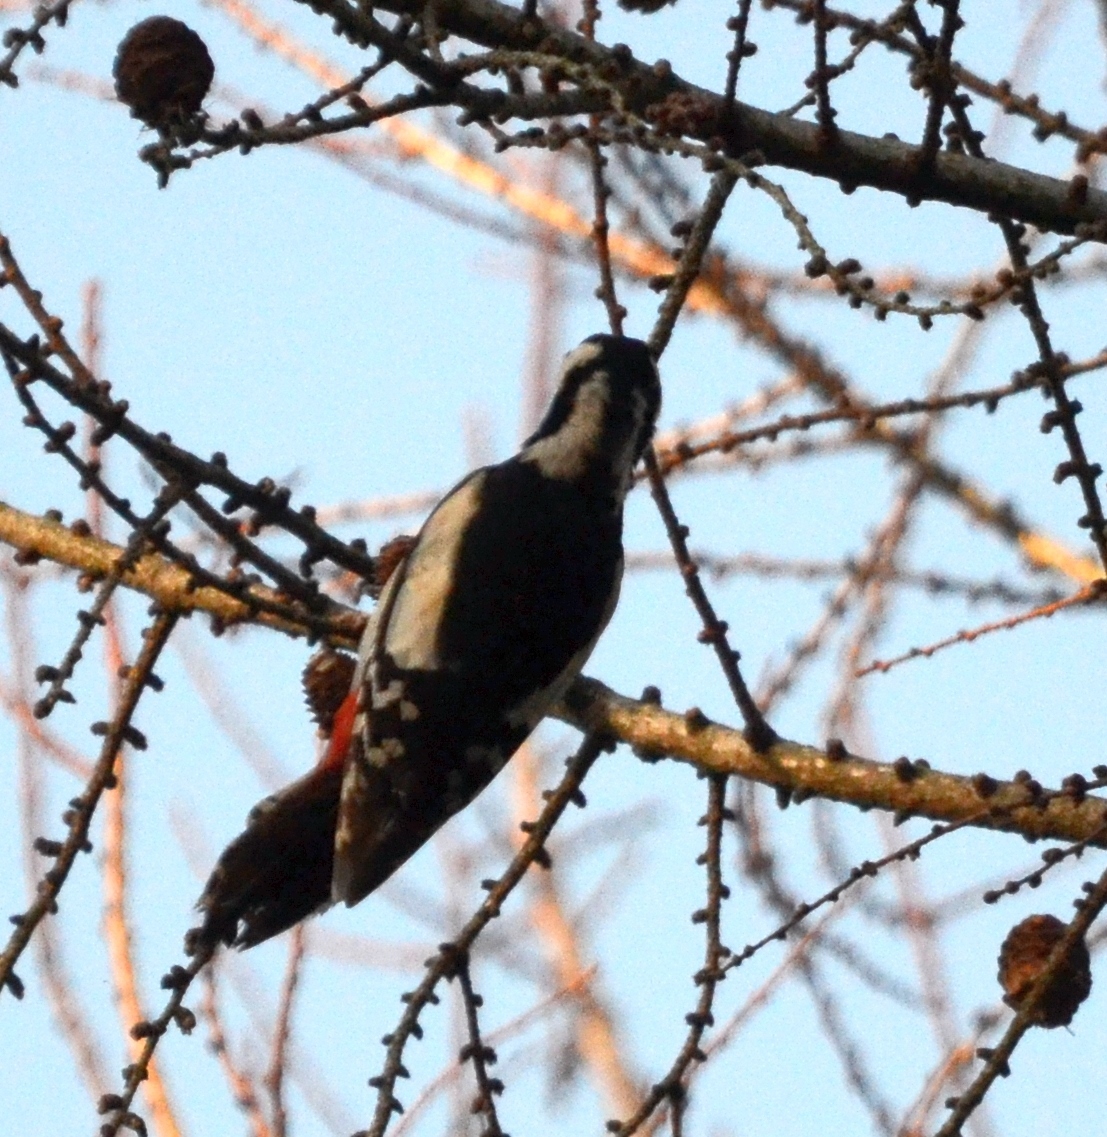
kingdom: Animalia
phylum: Chordata
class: Aves
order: Piciformes
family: Picidae
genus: Dendrocopos
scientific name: Dendrocopos major
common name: Great spotted woodpecker
